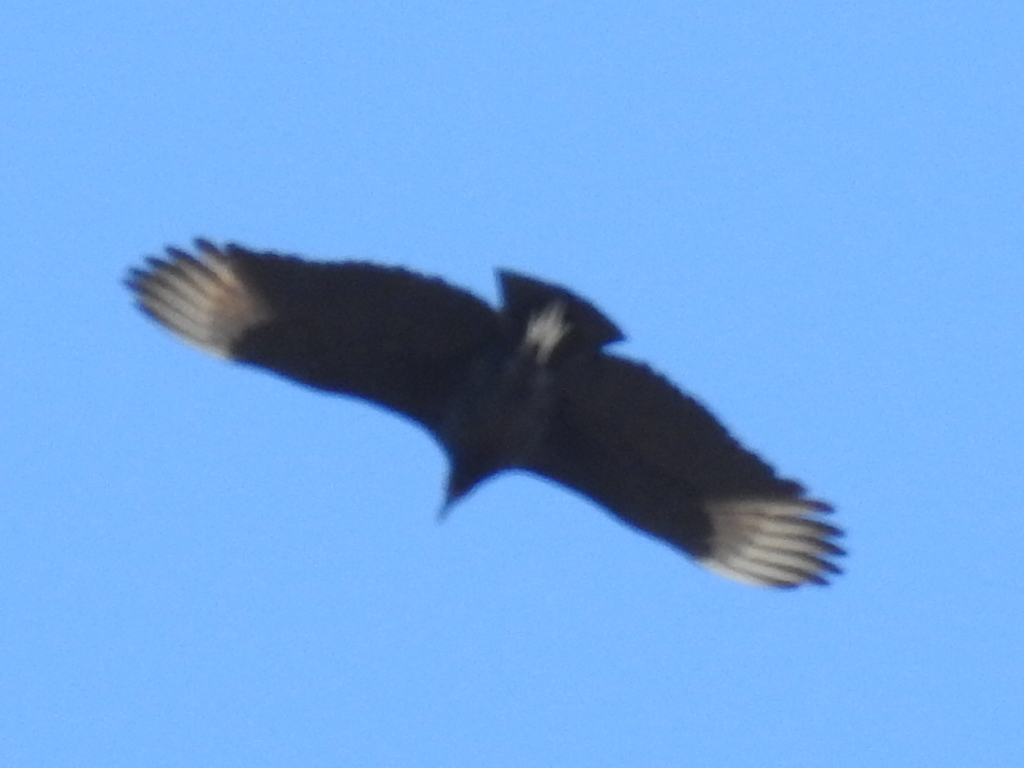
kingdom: Animalia
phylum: Chordata
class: Aves
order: Accipitriformes
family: Cathartidae
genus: Coragyps
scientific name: Coragyps atratus
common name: Black vulture
